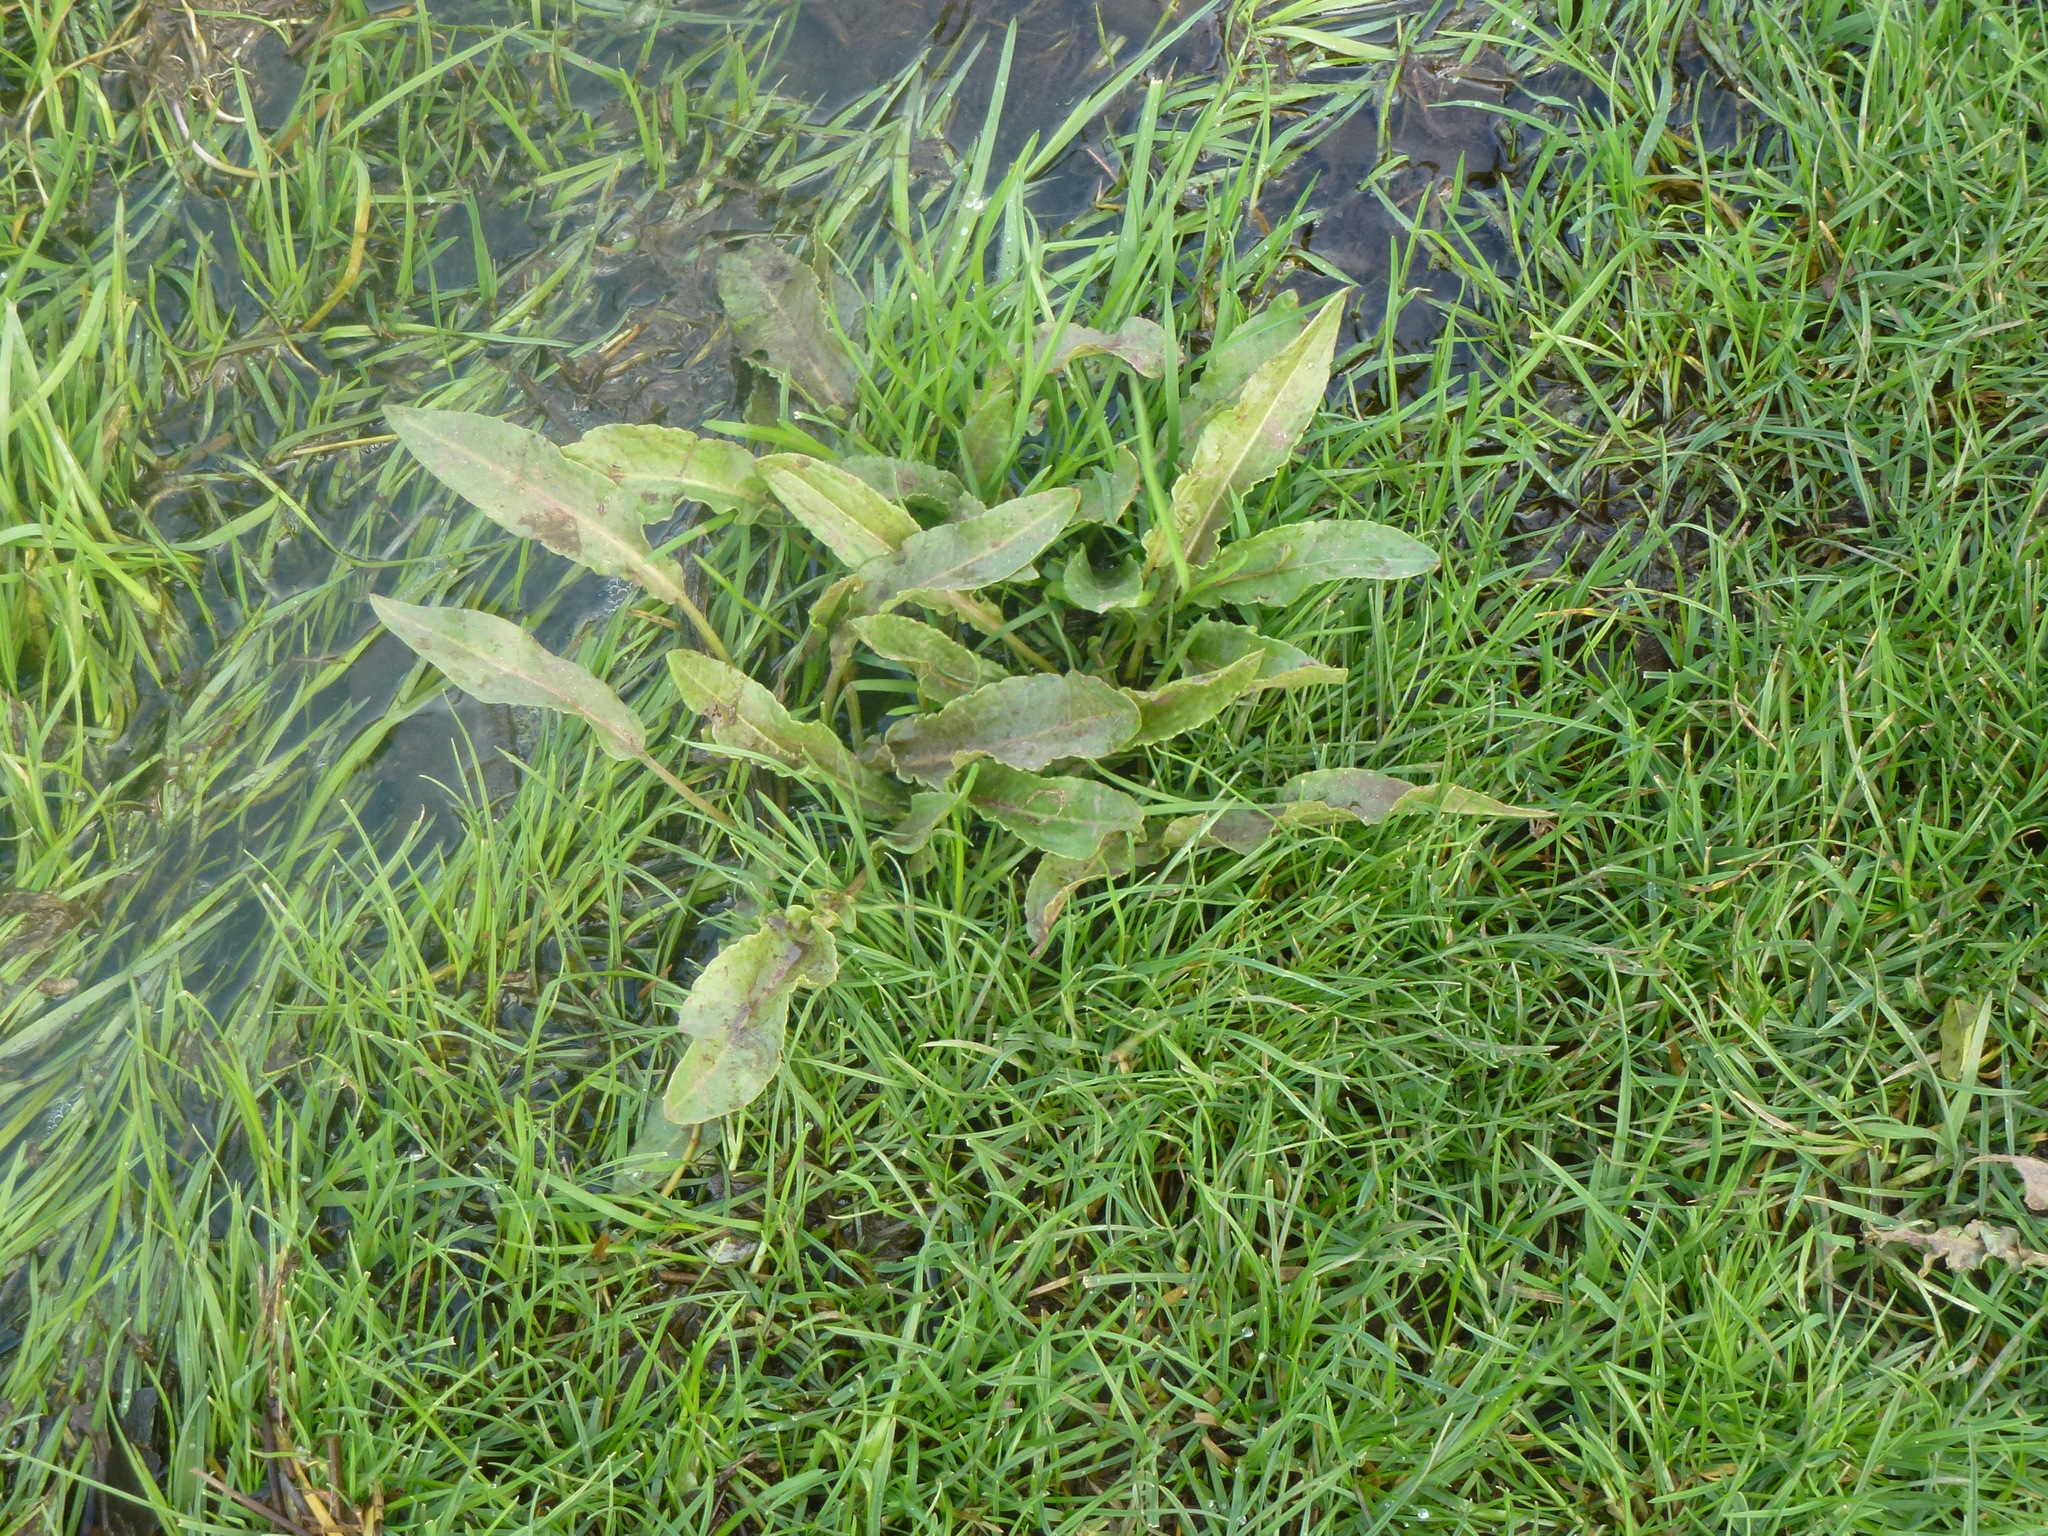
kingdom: Plantae
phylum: Tracheophyta
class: Magnoliopsida
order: Caryophyllales
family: Polygonaceae
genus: Rumex
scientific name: Rumex crispus
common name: Curled dock
